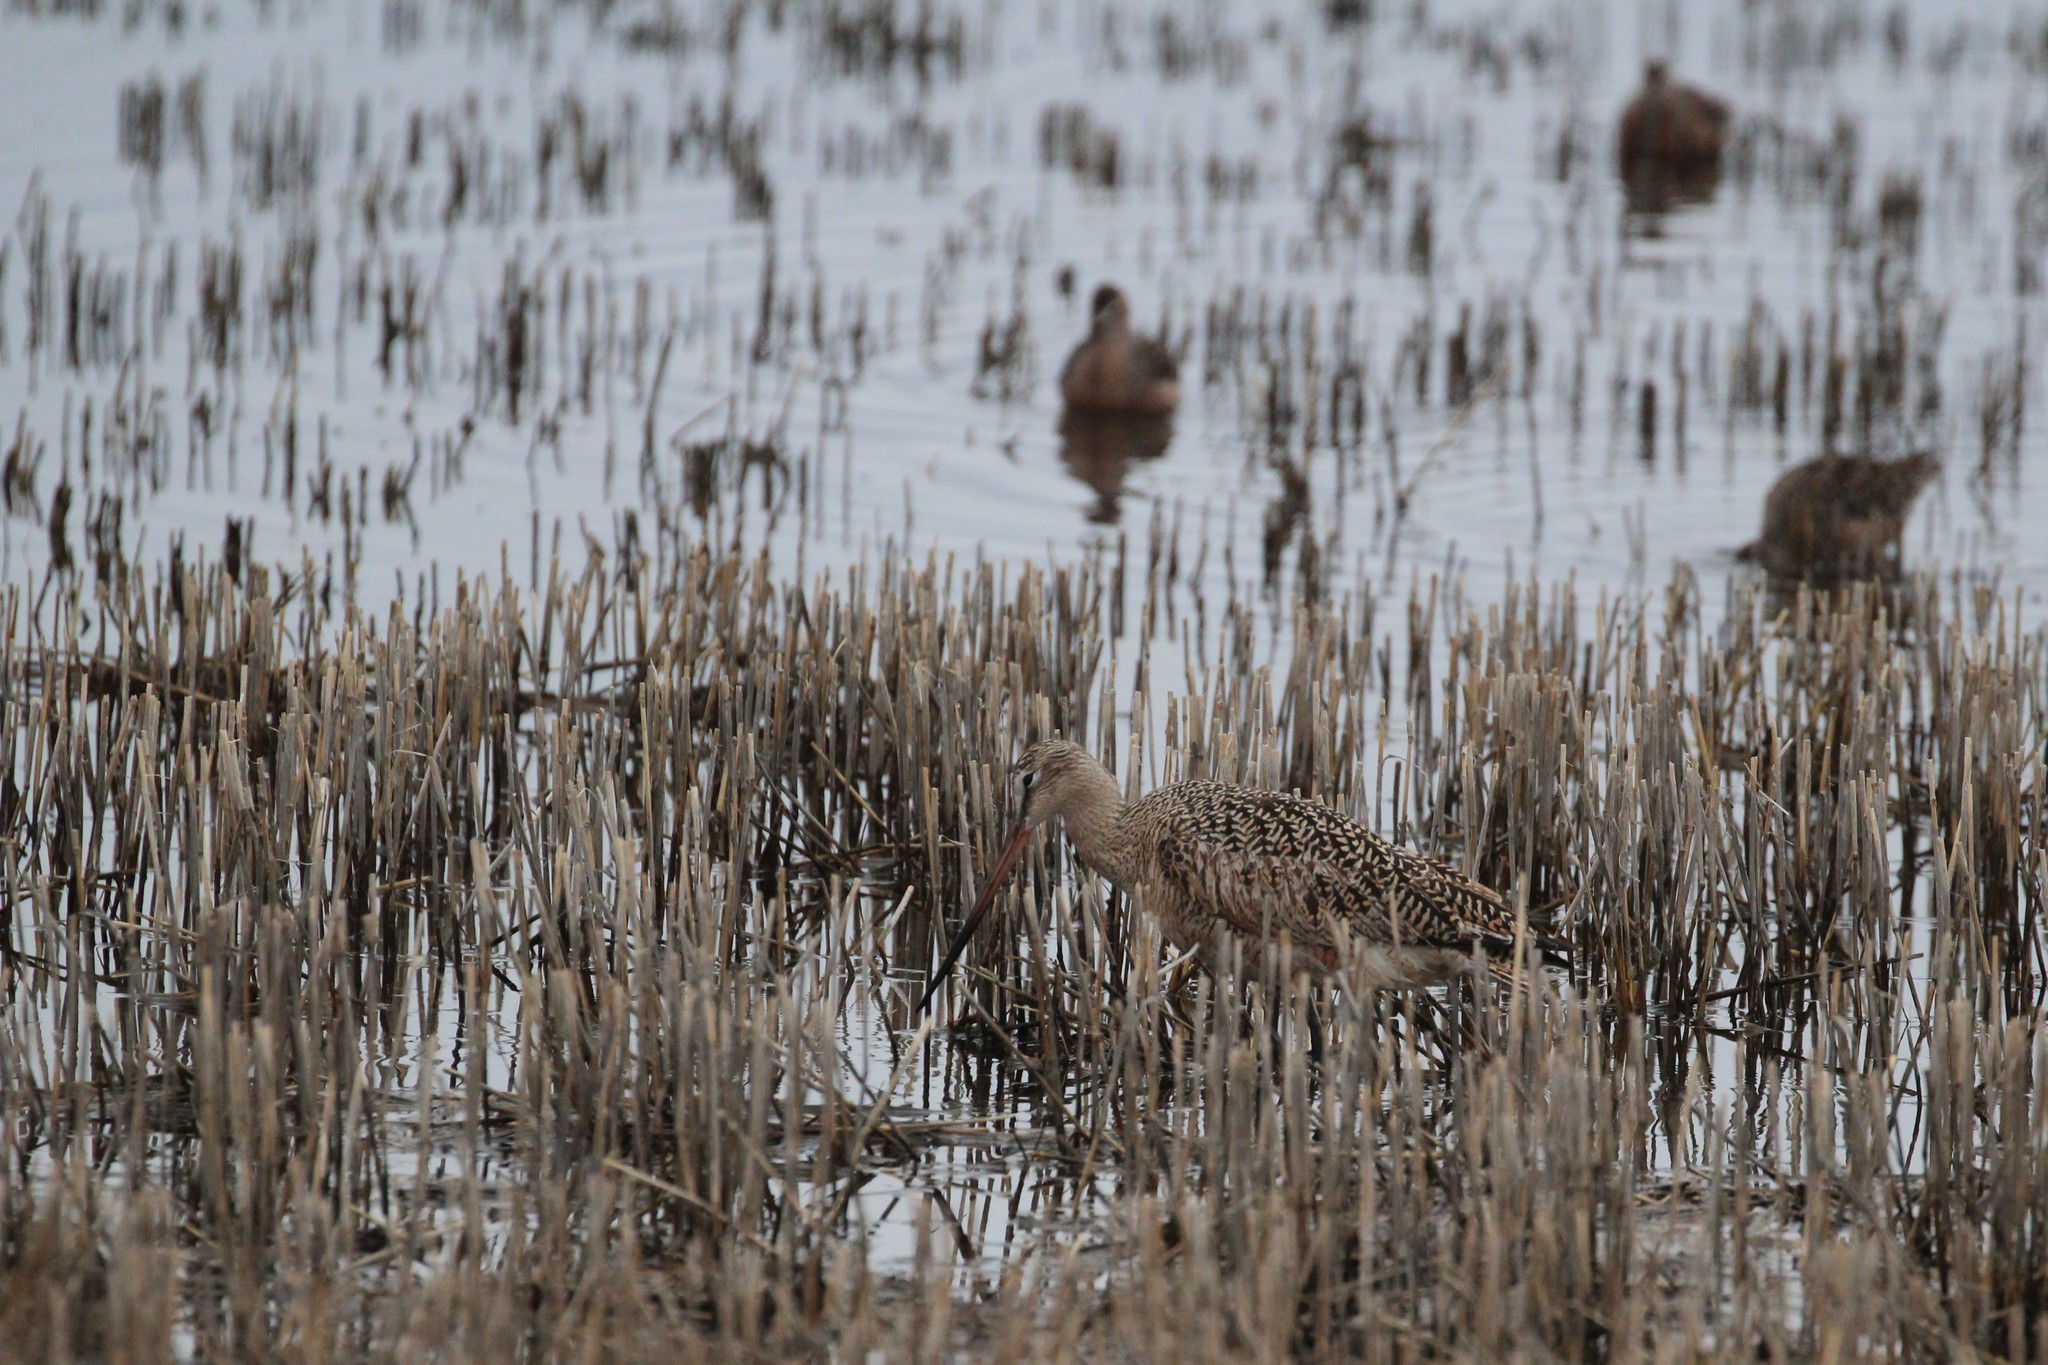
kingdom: Animalia
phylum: Chordata
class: Aves
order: Charadriiformes
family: Scolopacidae
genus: Limosa
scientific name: Limosa fedoa
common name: Marbled godwit
